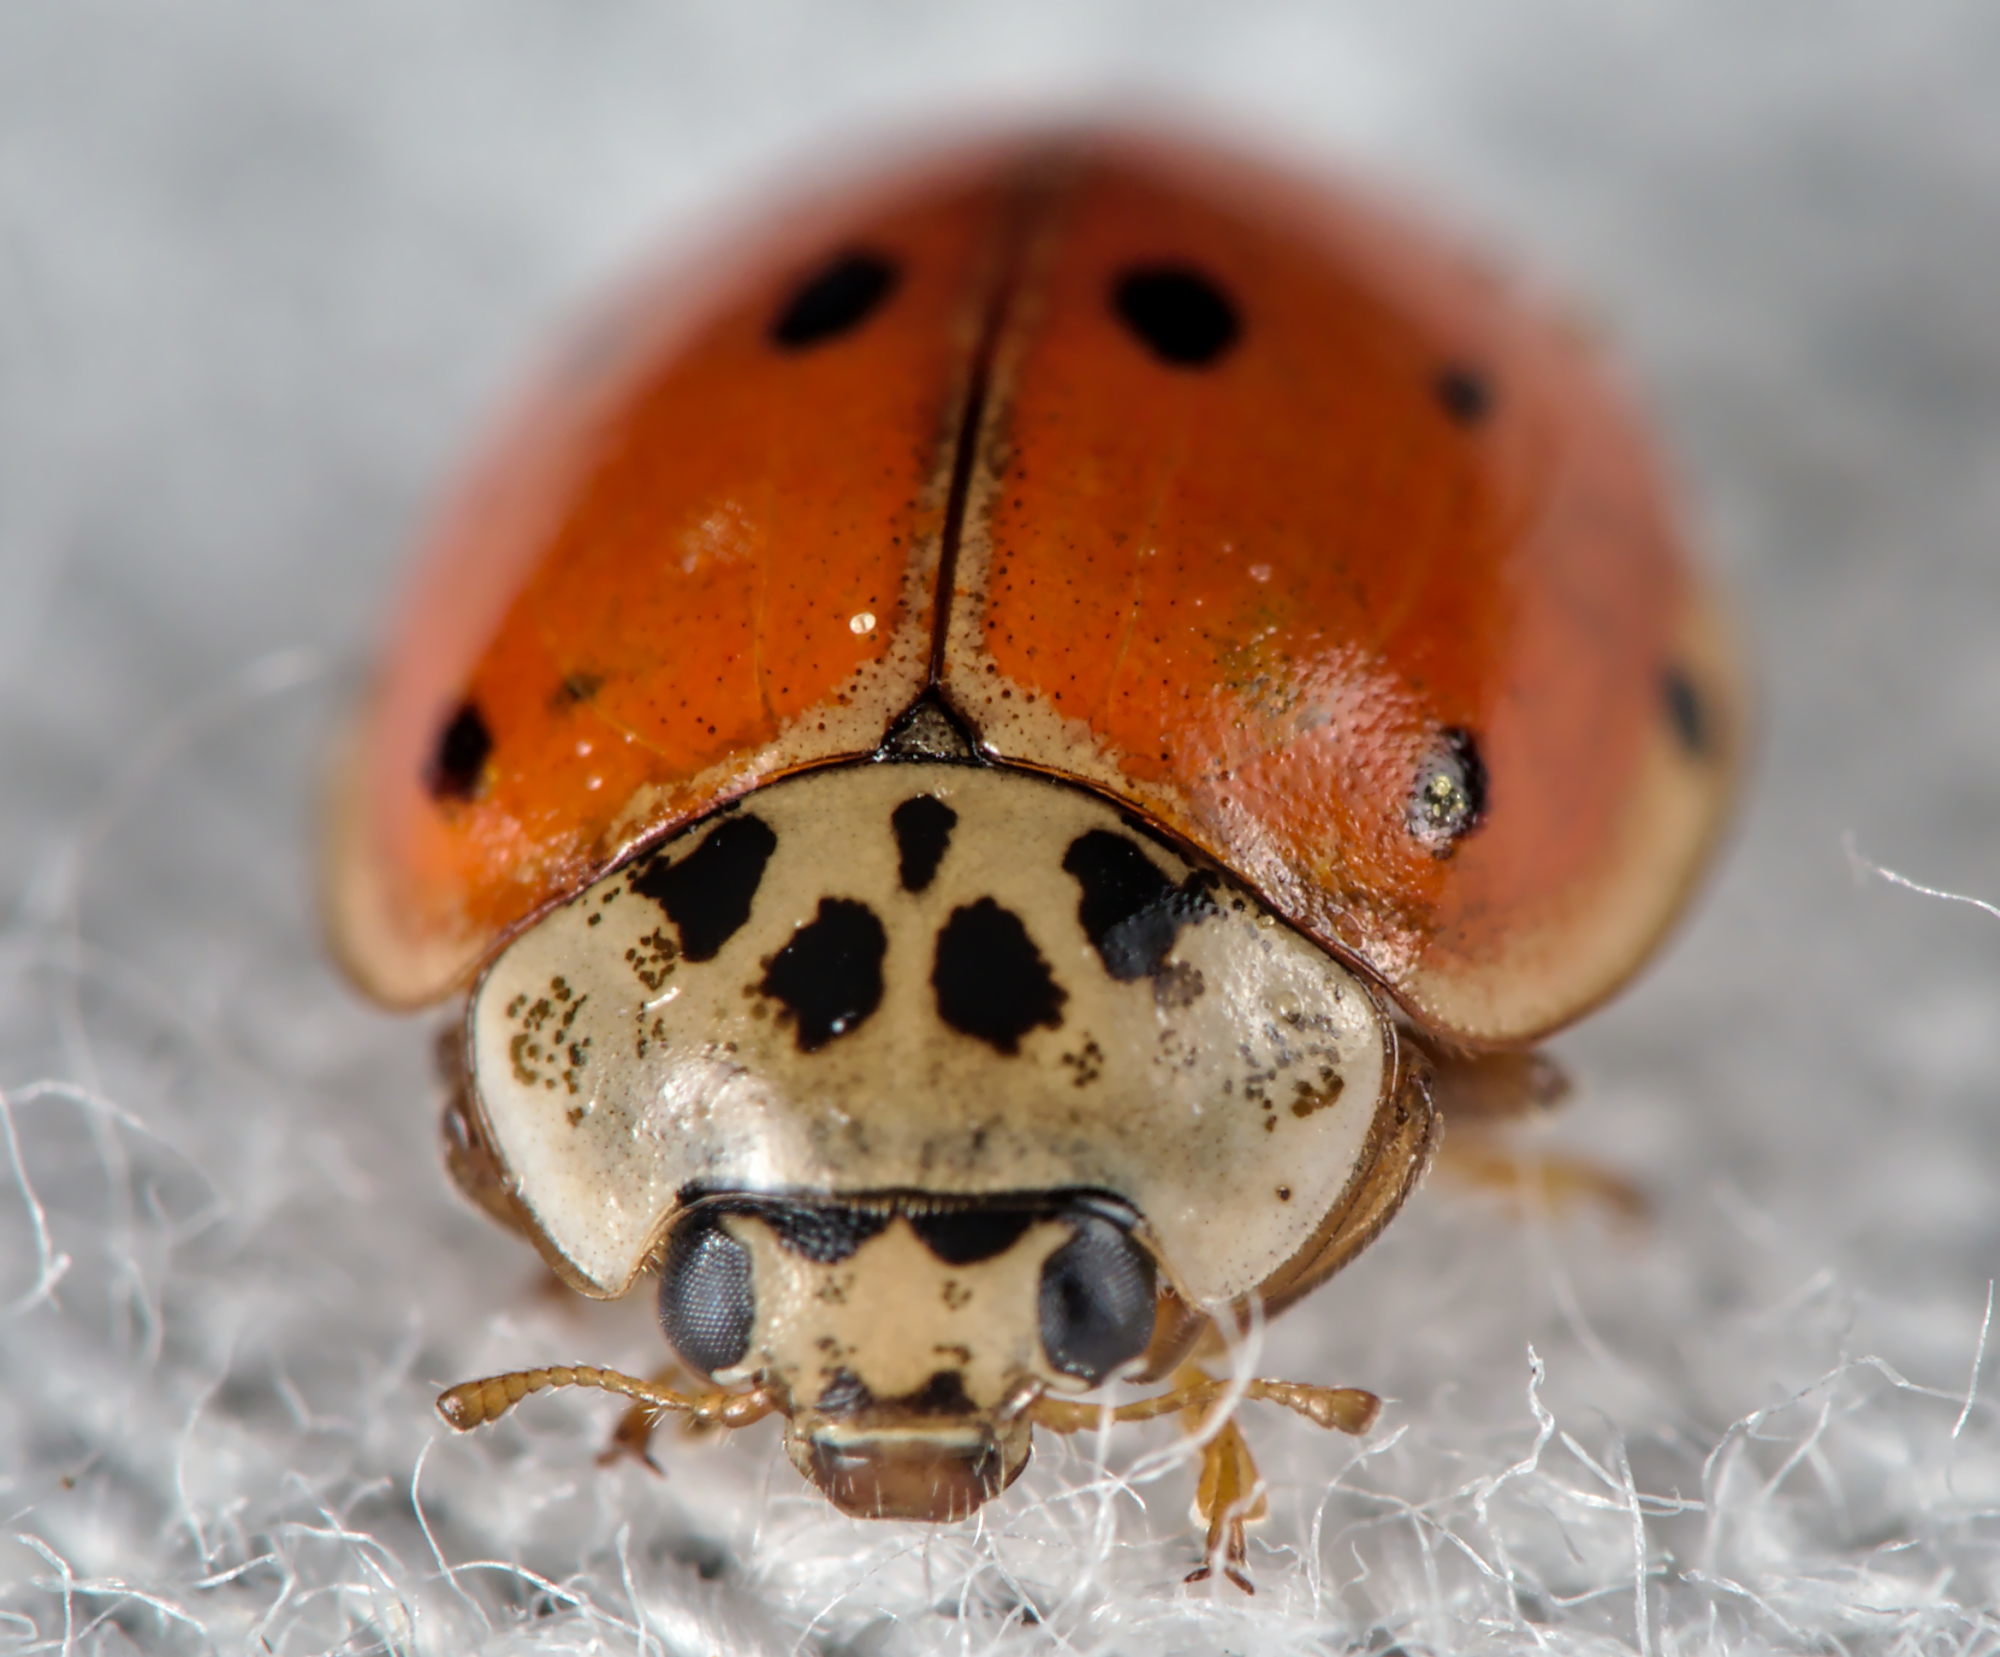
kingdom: Animalia
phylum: Arthropoda
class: Insecta
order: Coleoptera
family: Coccinellidae
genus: Adalia
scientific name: Adalia decempunctata
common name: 10-spot ladybird
